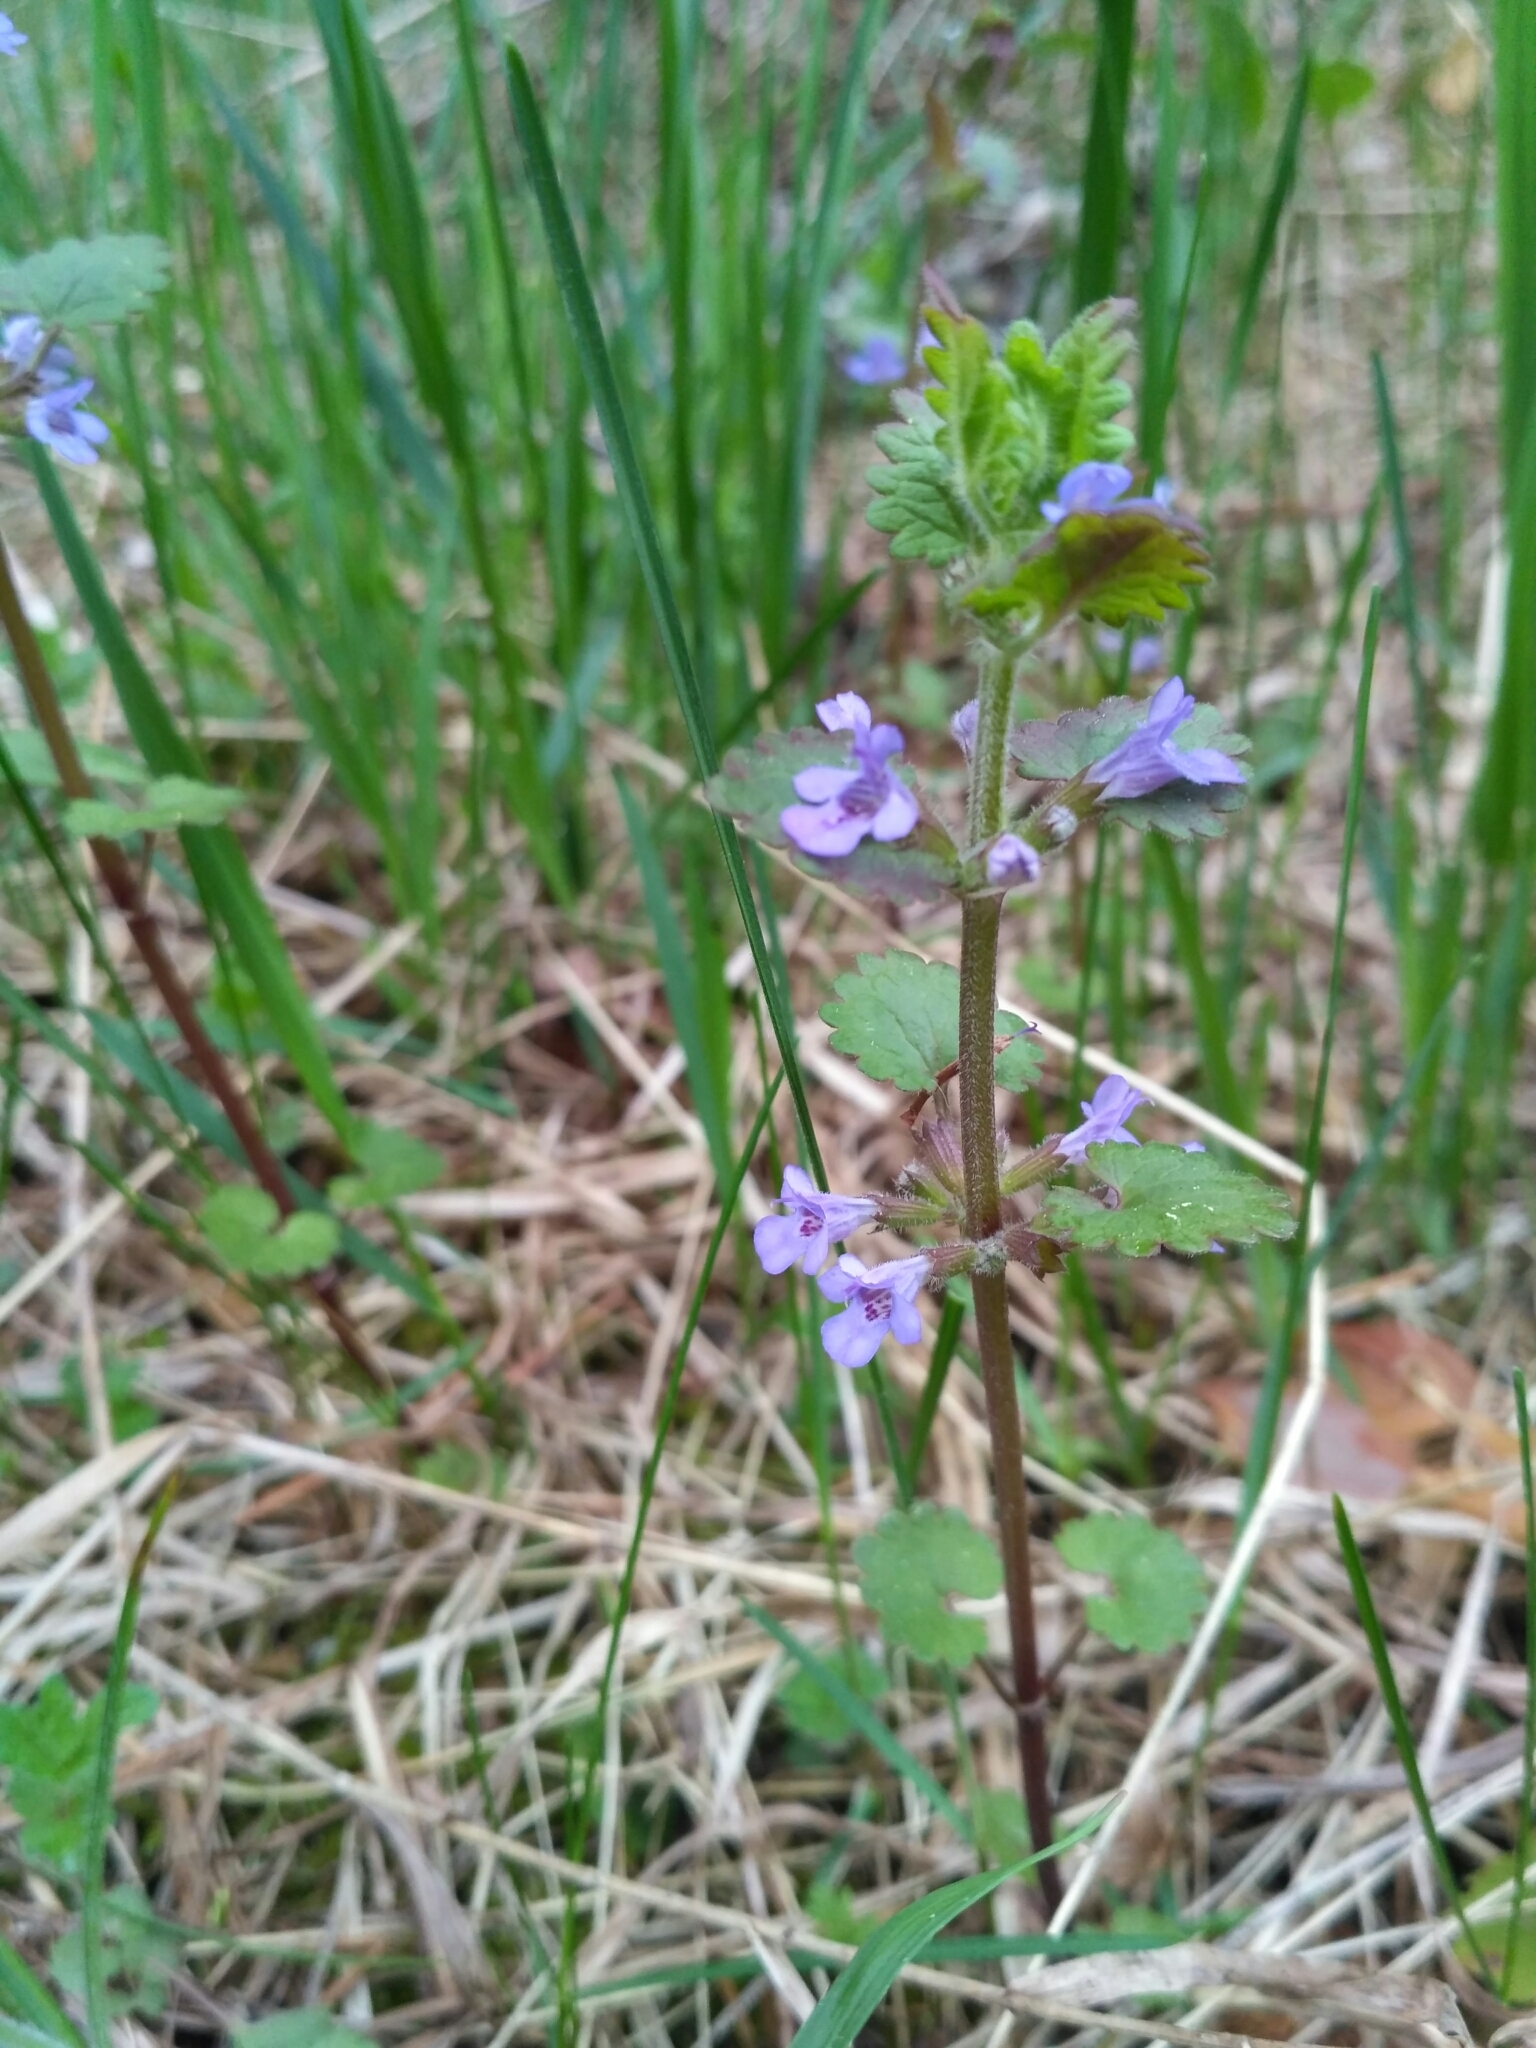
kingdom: Plantae
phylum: Tracheophyta
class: Magnoliopsida
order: Lamiales
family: Lamiaceae
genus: Glechoma
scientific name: Glechoma hederacea
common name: Ground ivy
